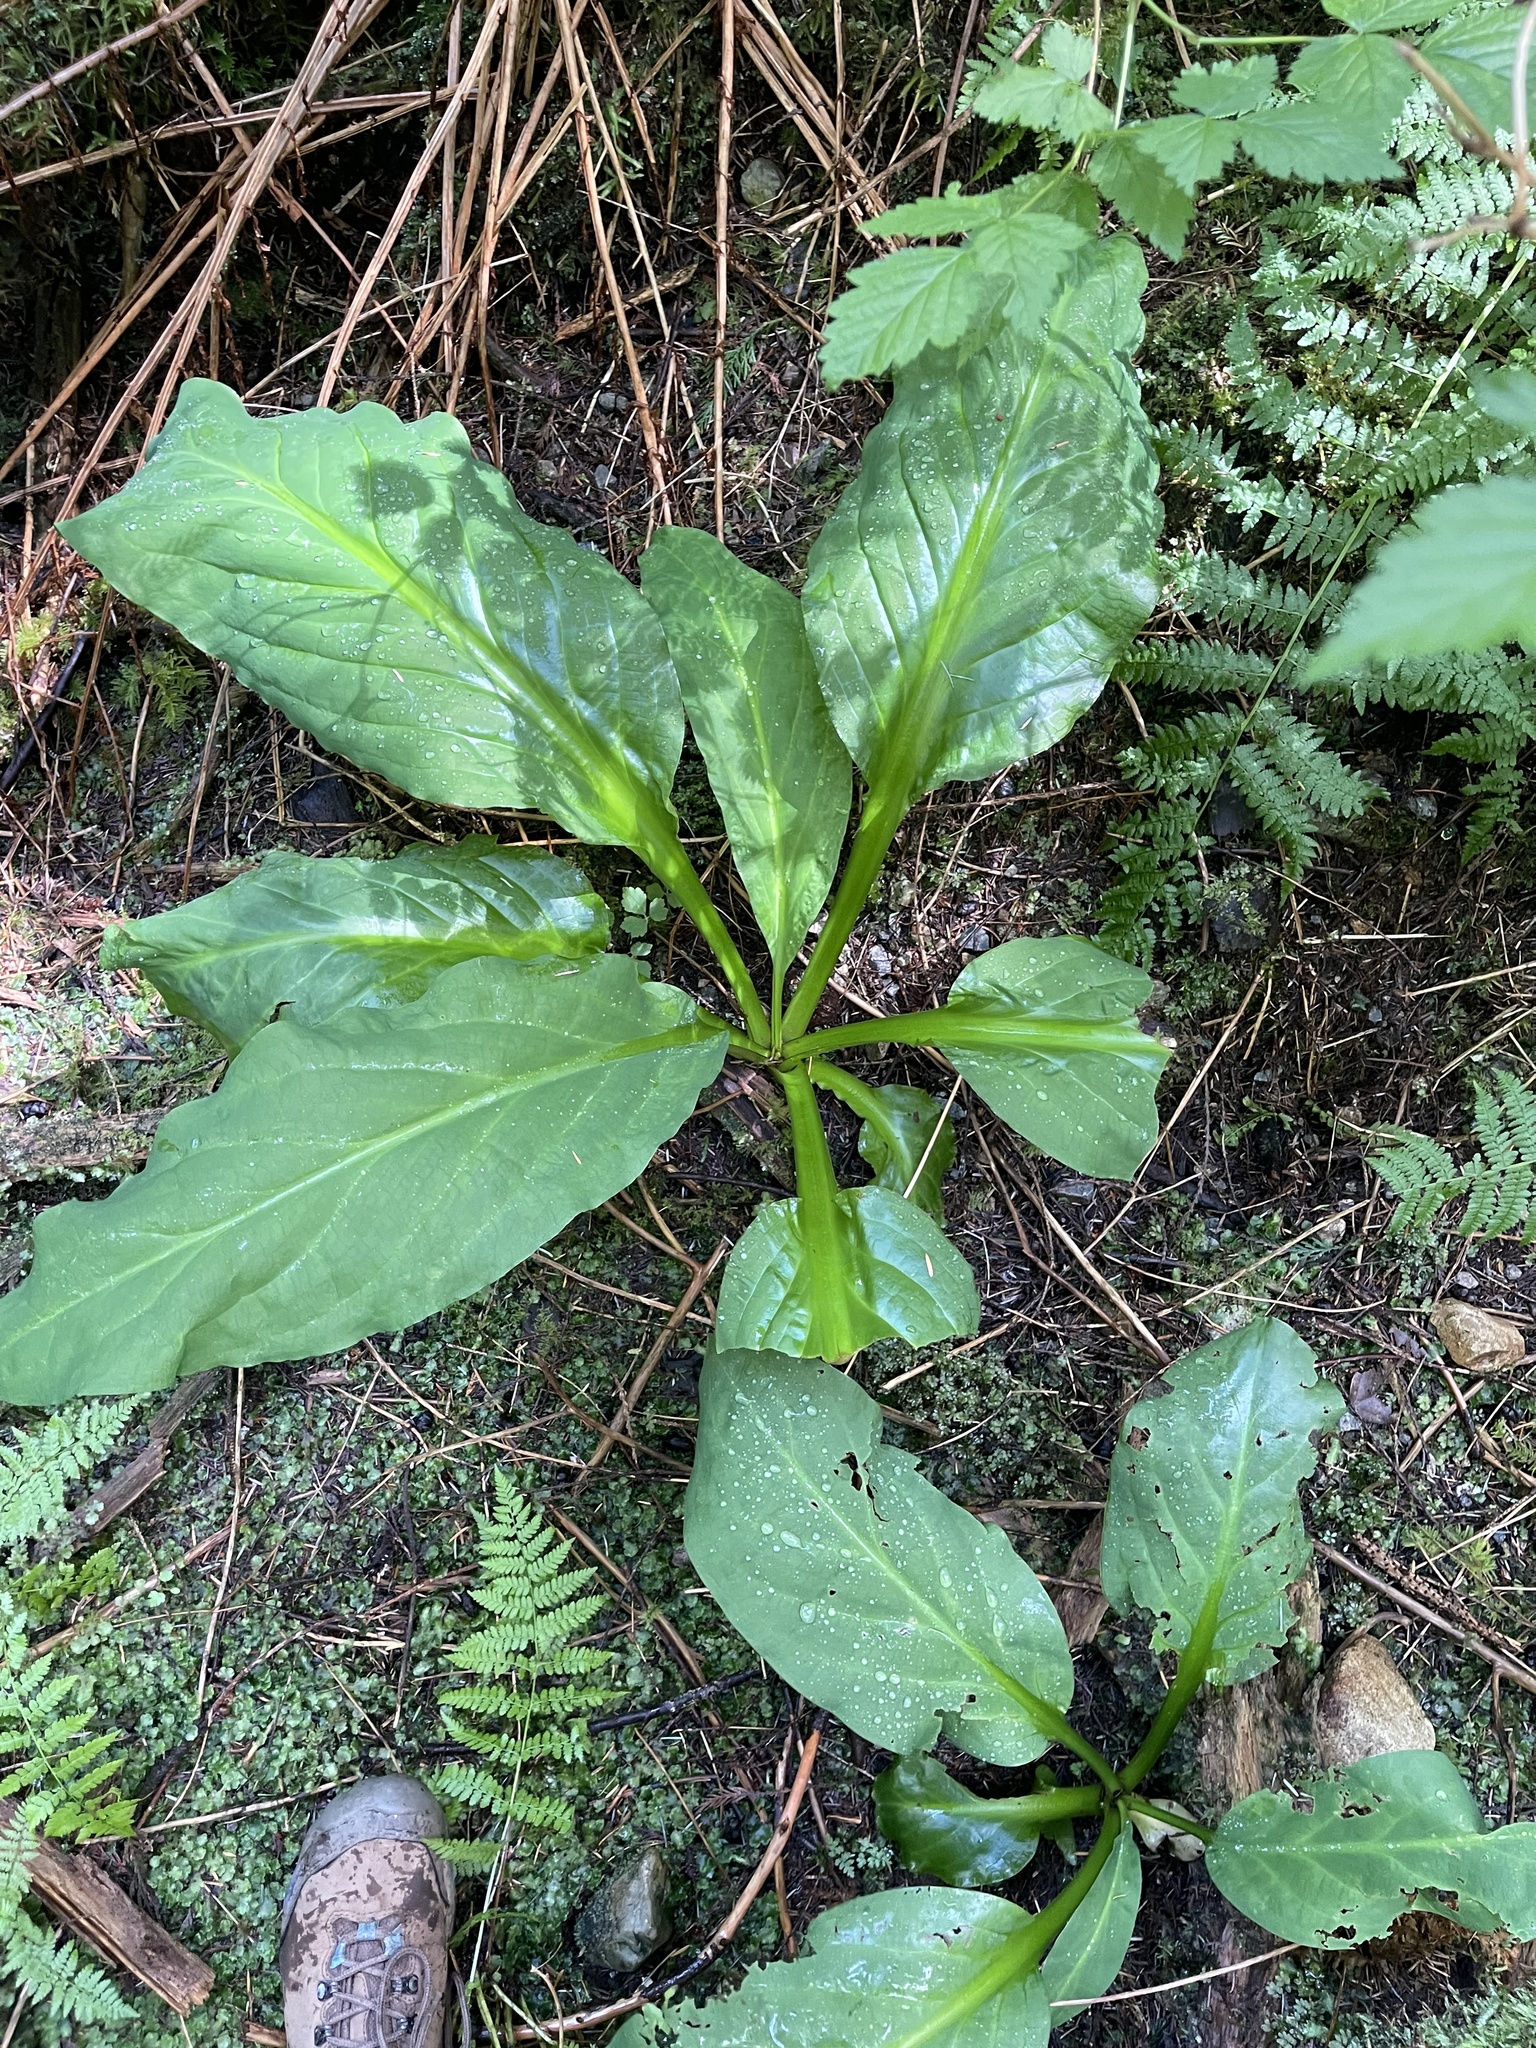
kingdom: Plantae
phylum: Tracheophyta
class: Liliopsida
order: Alismatales
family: Araceae
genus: Lysichiton
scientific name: Lysichiton americanus
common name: American skunk cabbage
